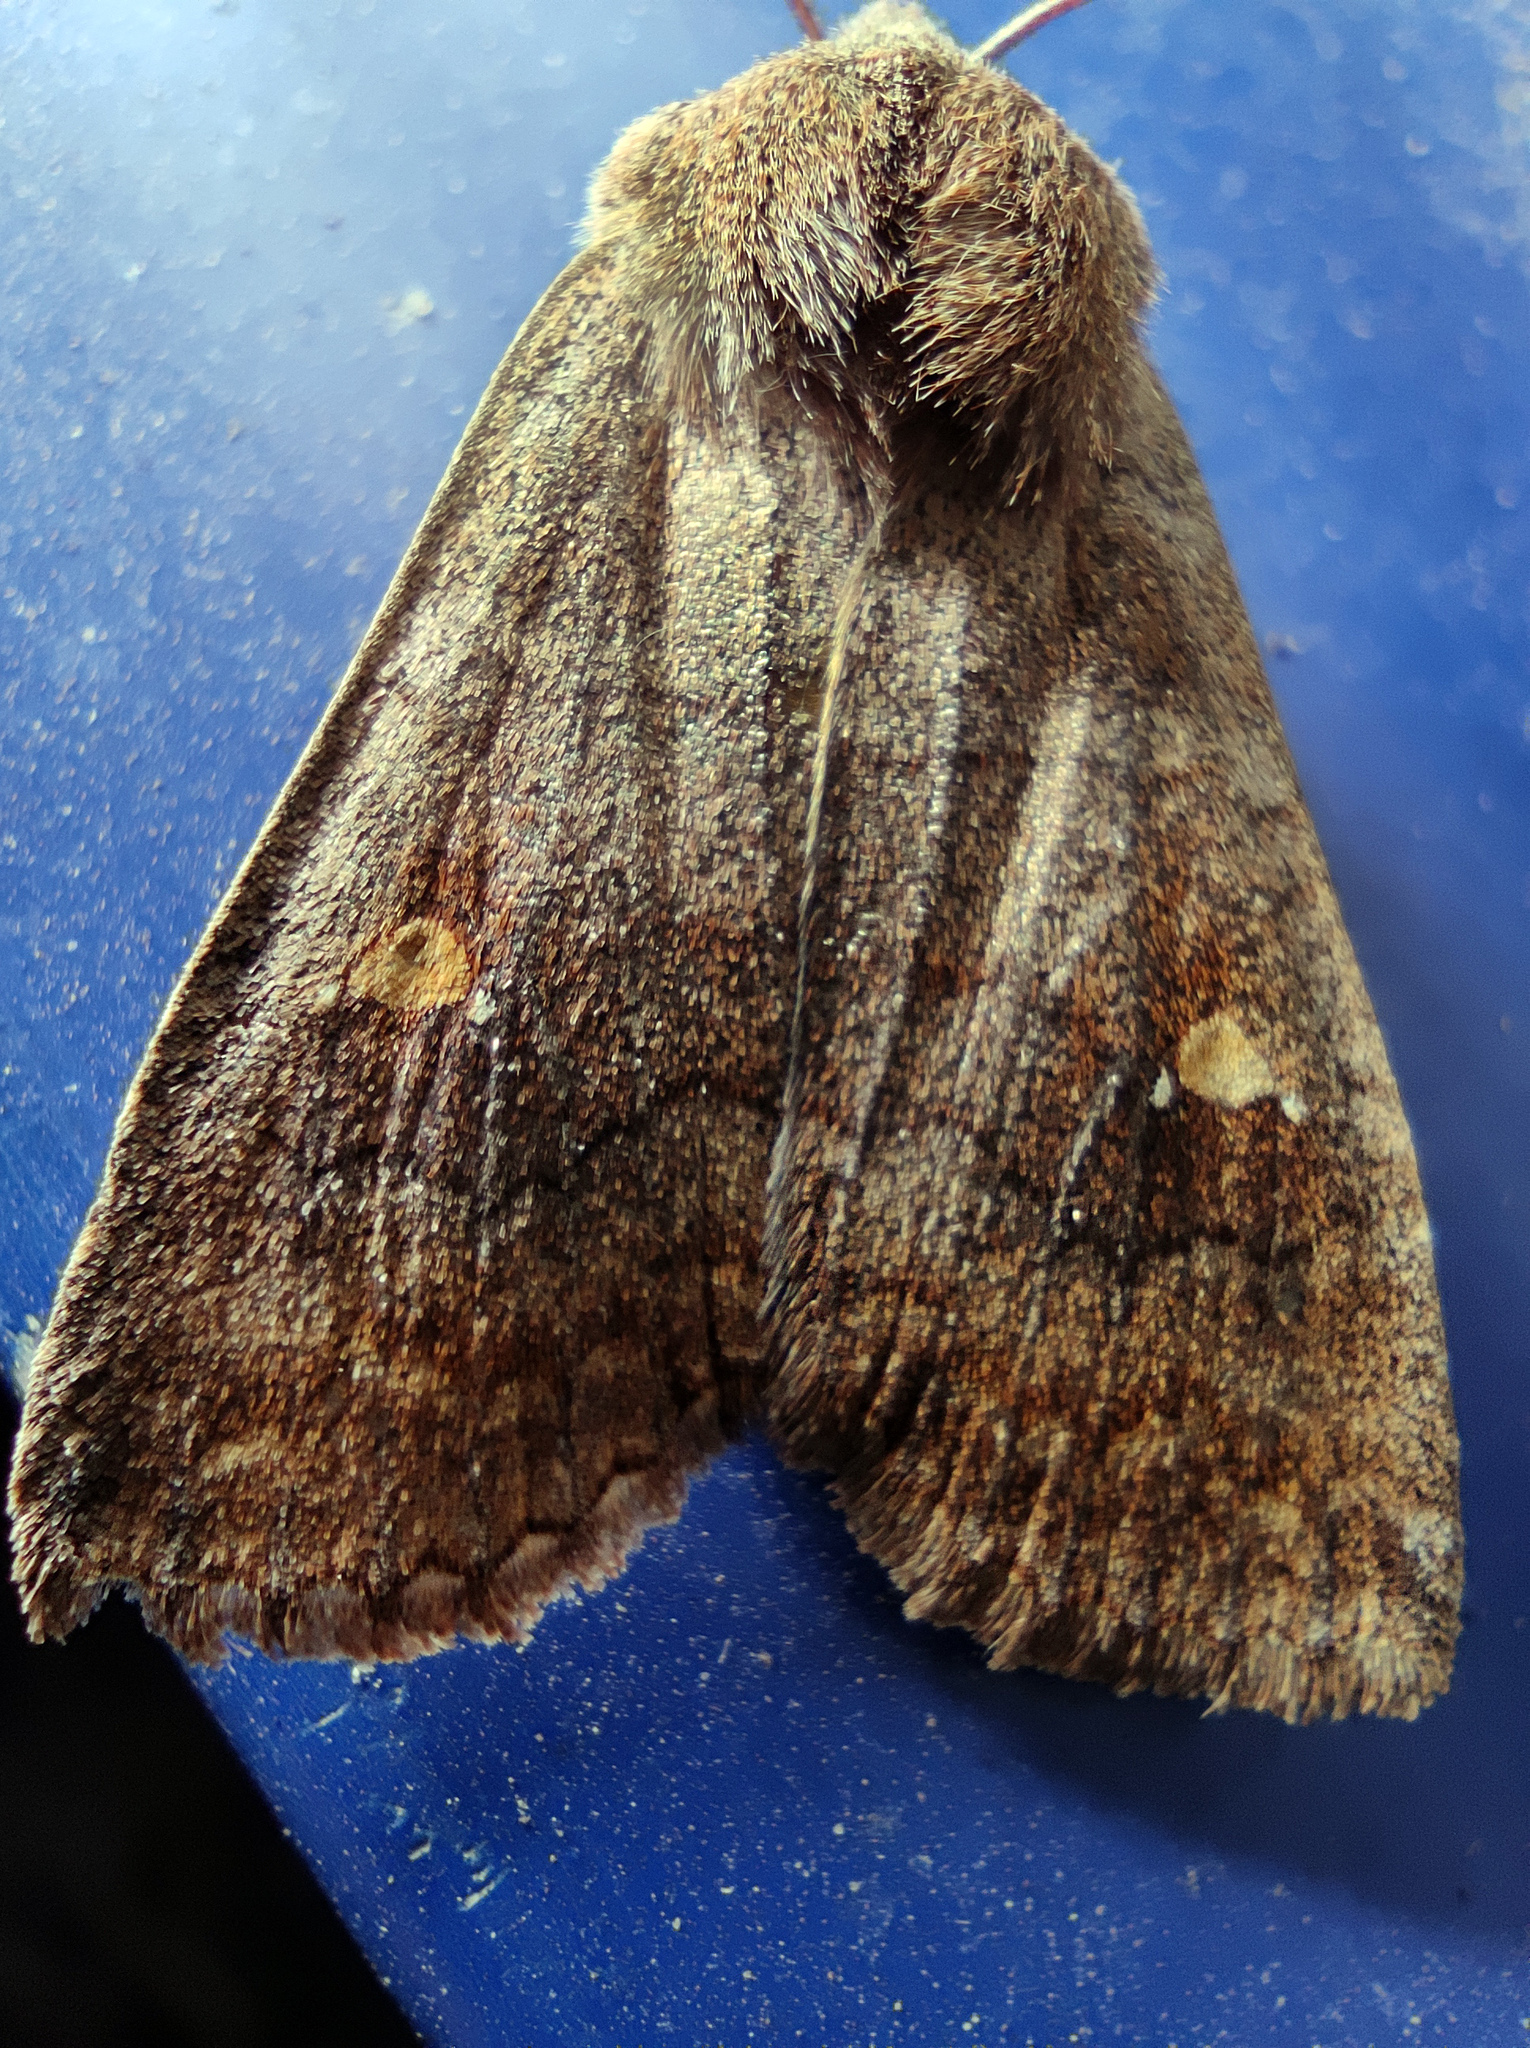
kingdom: Animalia
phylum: Arthropoda
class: Insecta
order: Lepidoptera
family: Noctuidae
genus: Eupsilia
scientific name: Eupsilia transversa
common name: Satellite
